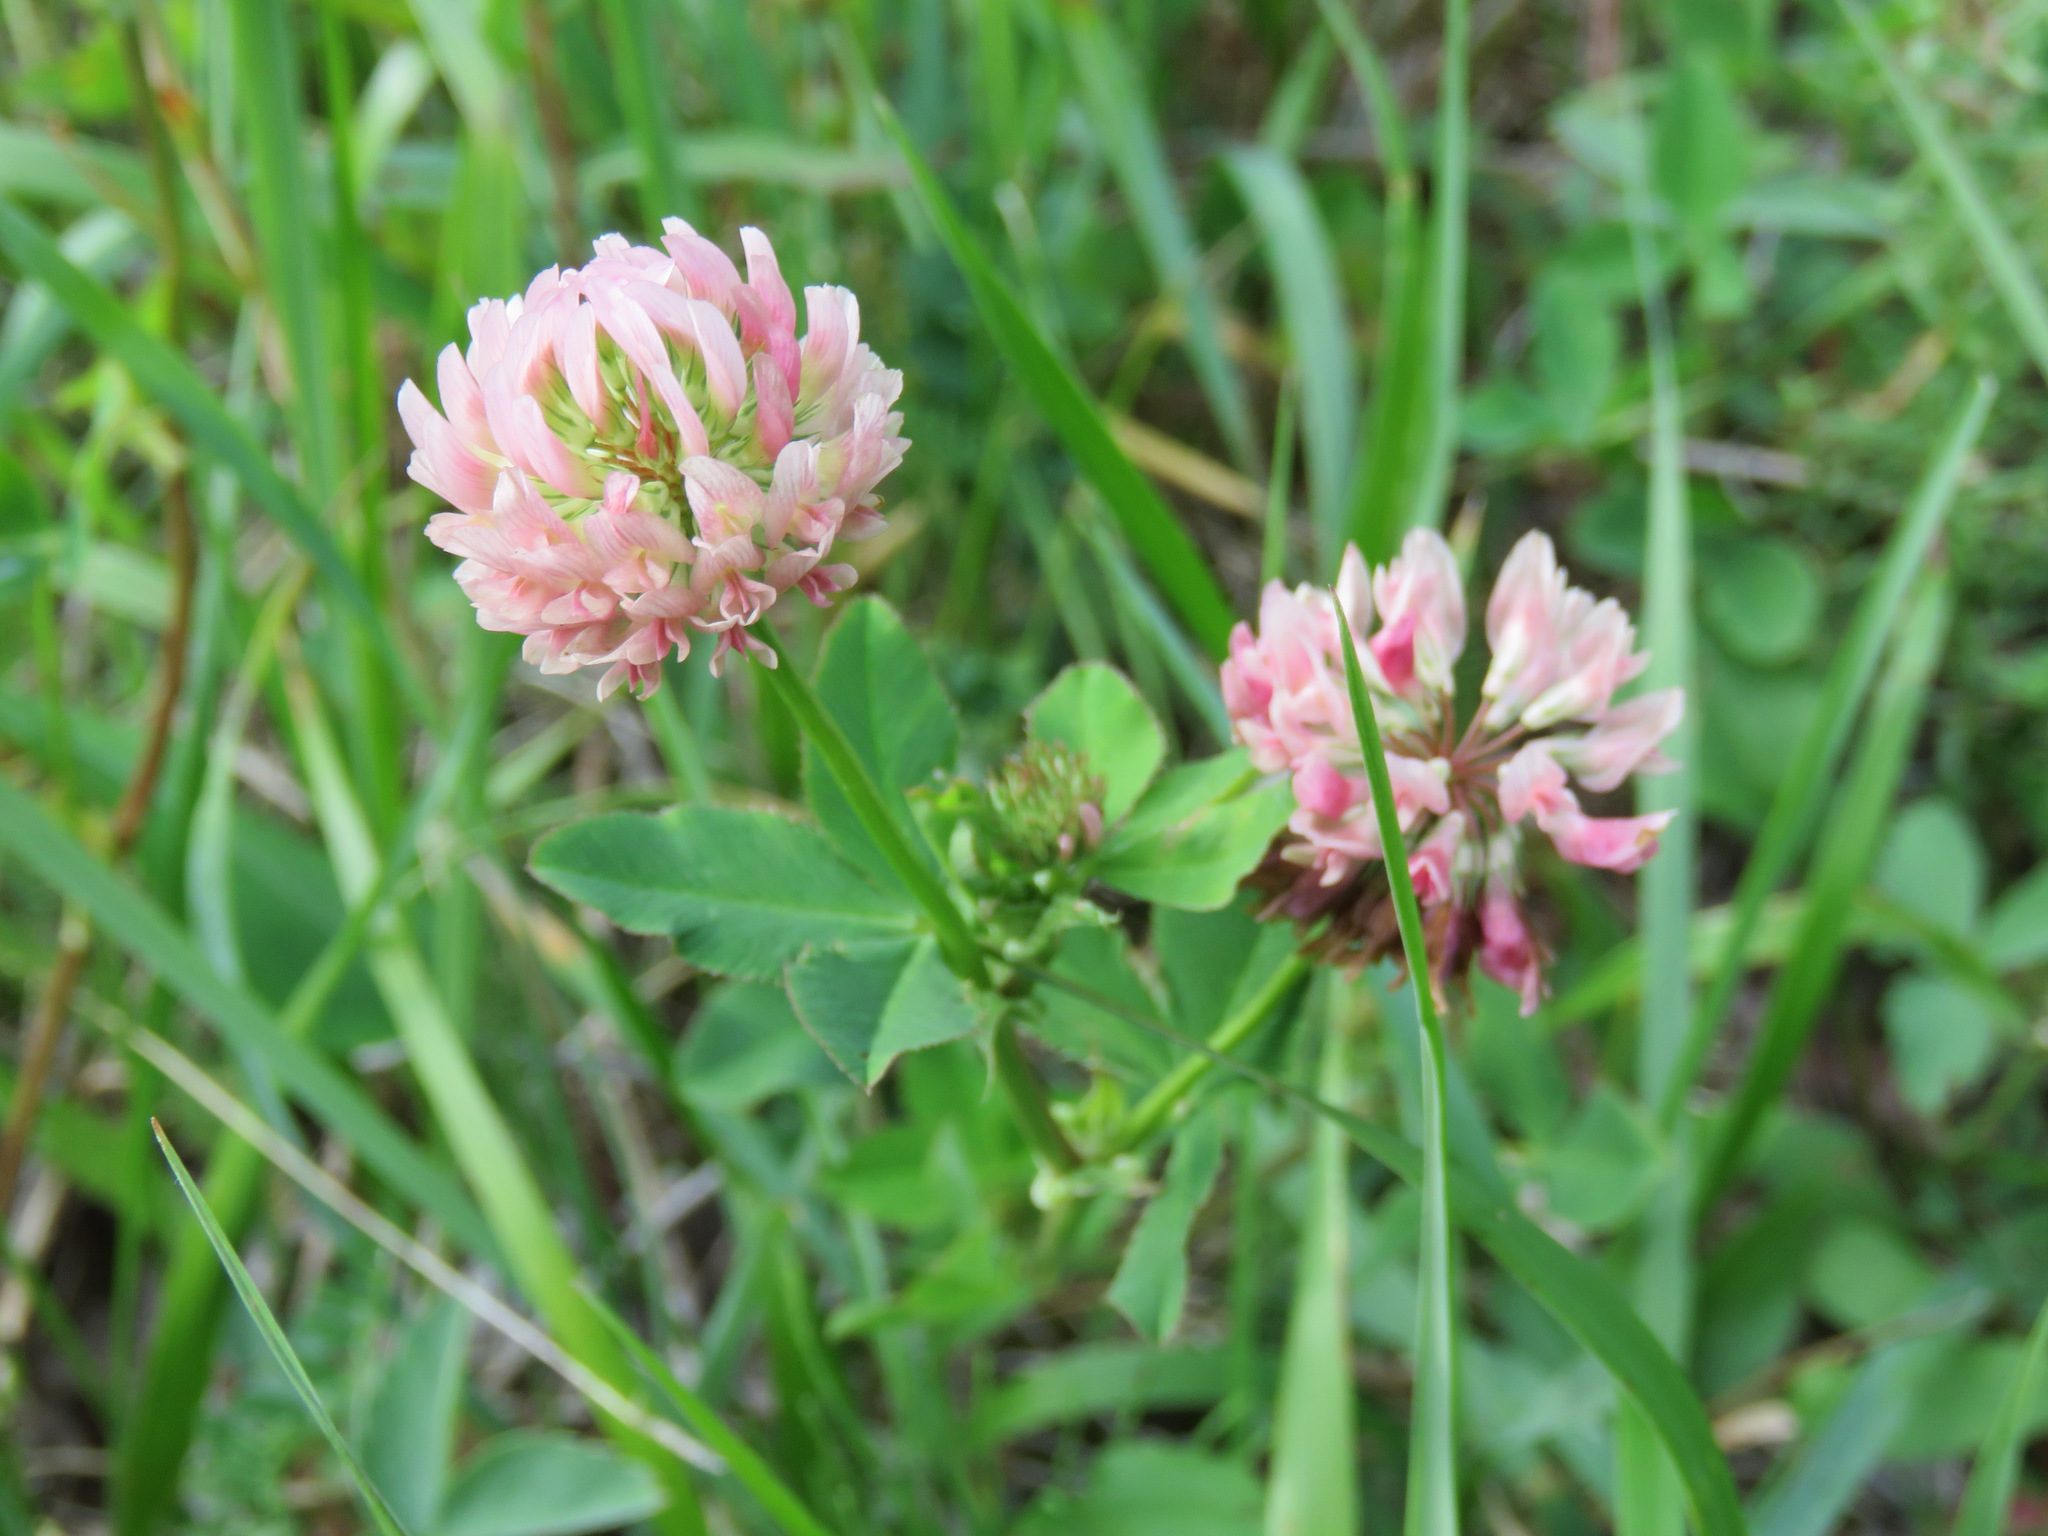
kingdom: Plantae
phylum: Tracheophyta
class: Magnoliopsida
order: Fabales
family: Fabaceae
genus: Trifolium
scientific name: Trifolium hybridum
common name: Alsike clover
